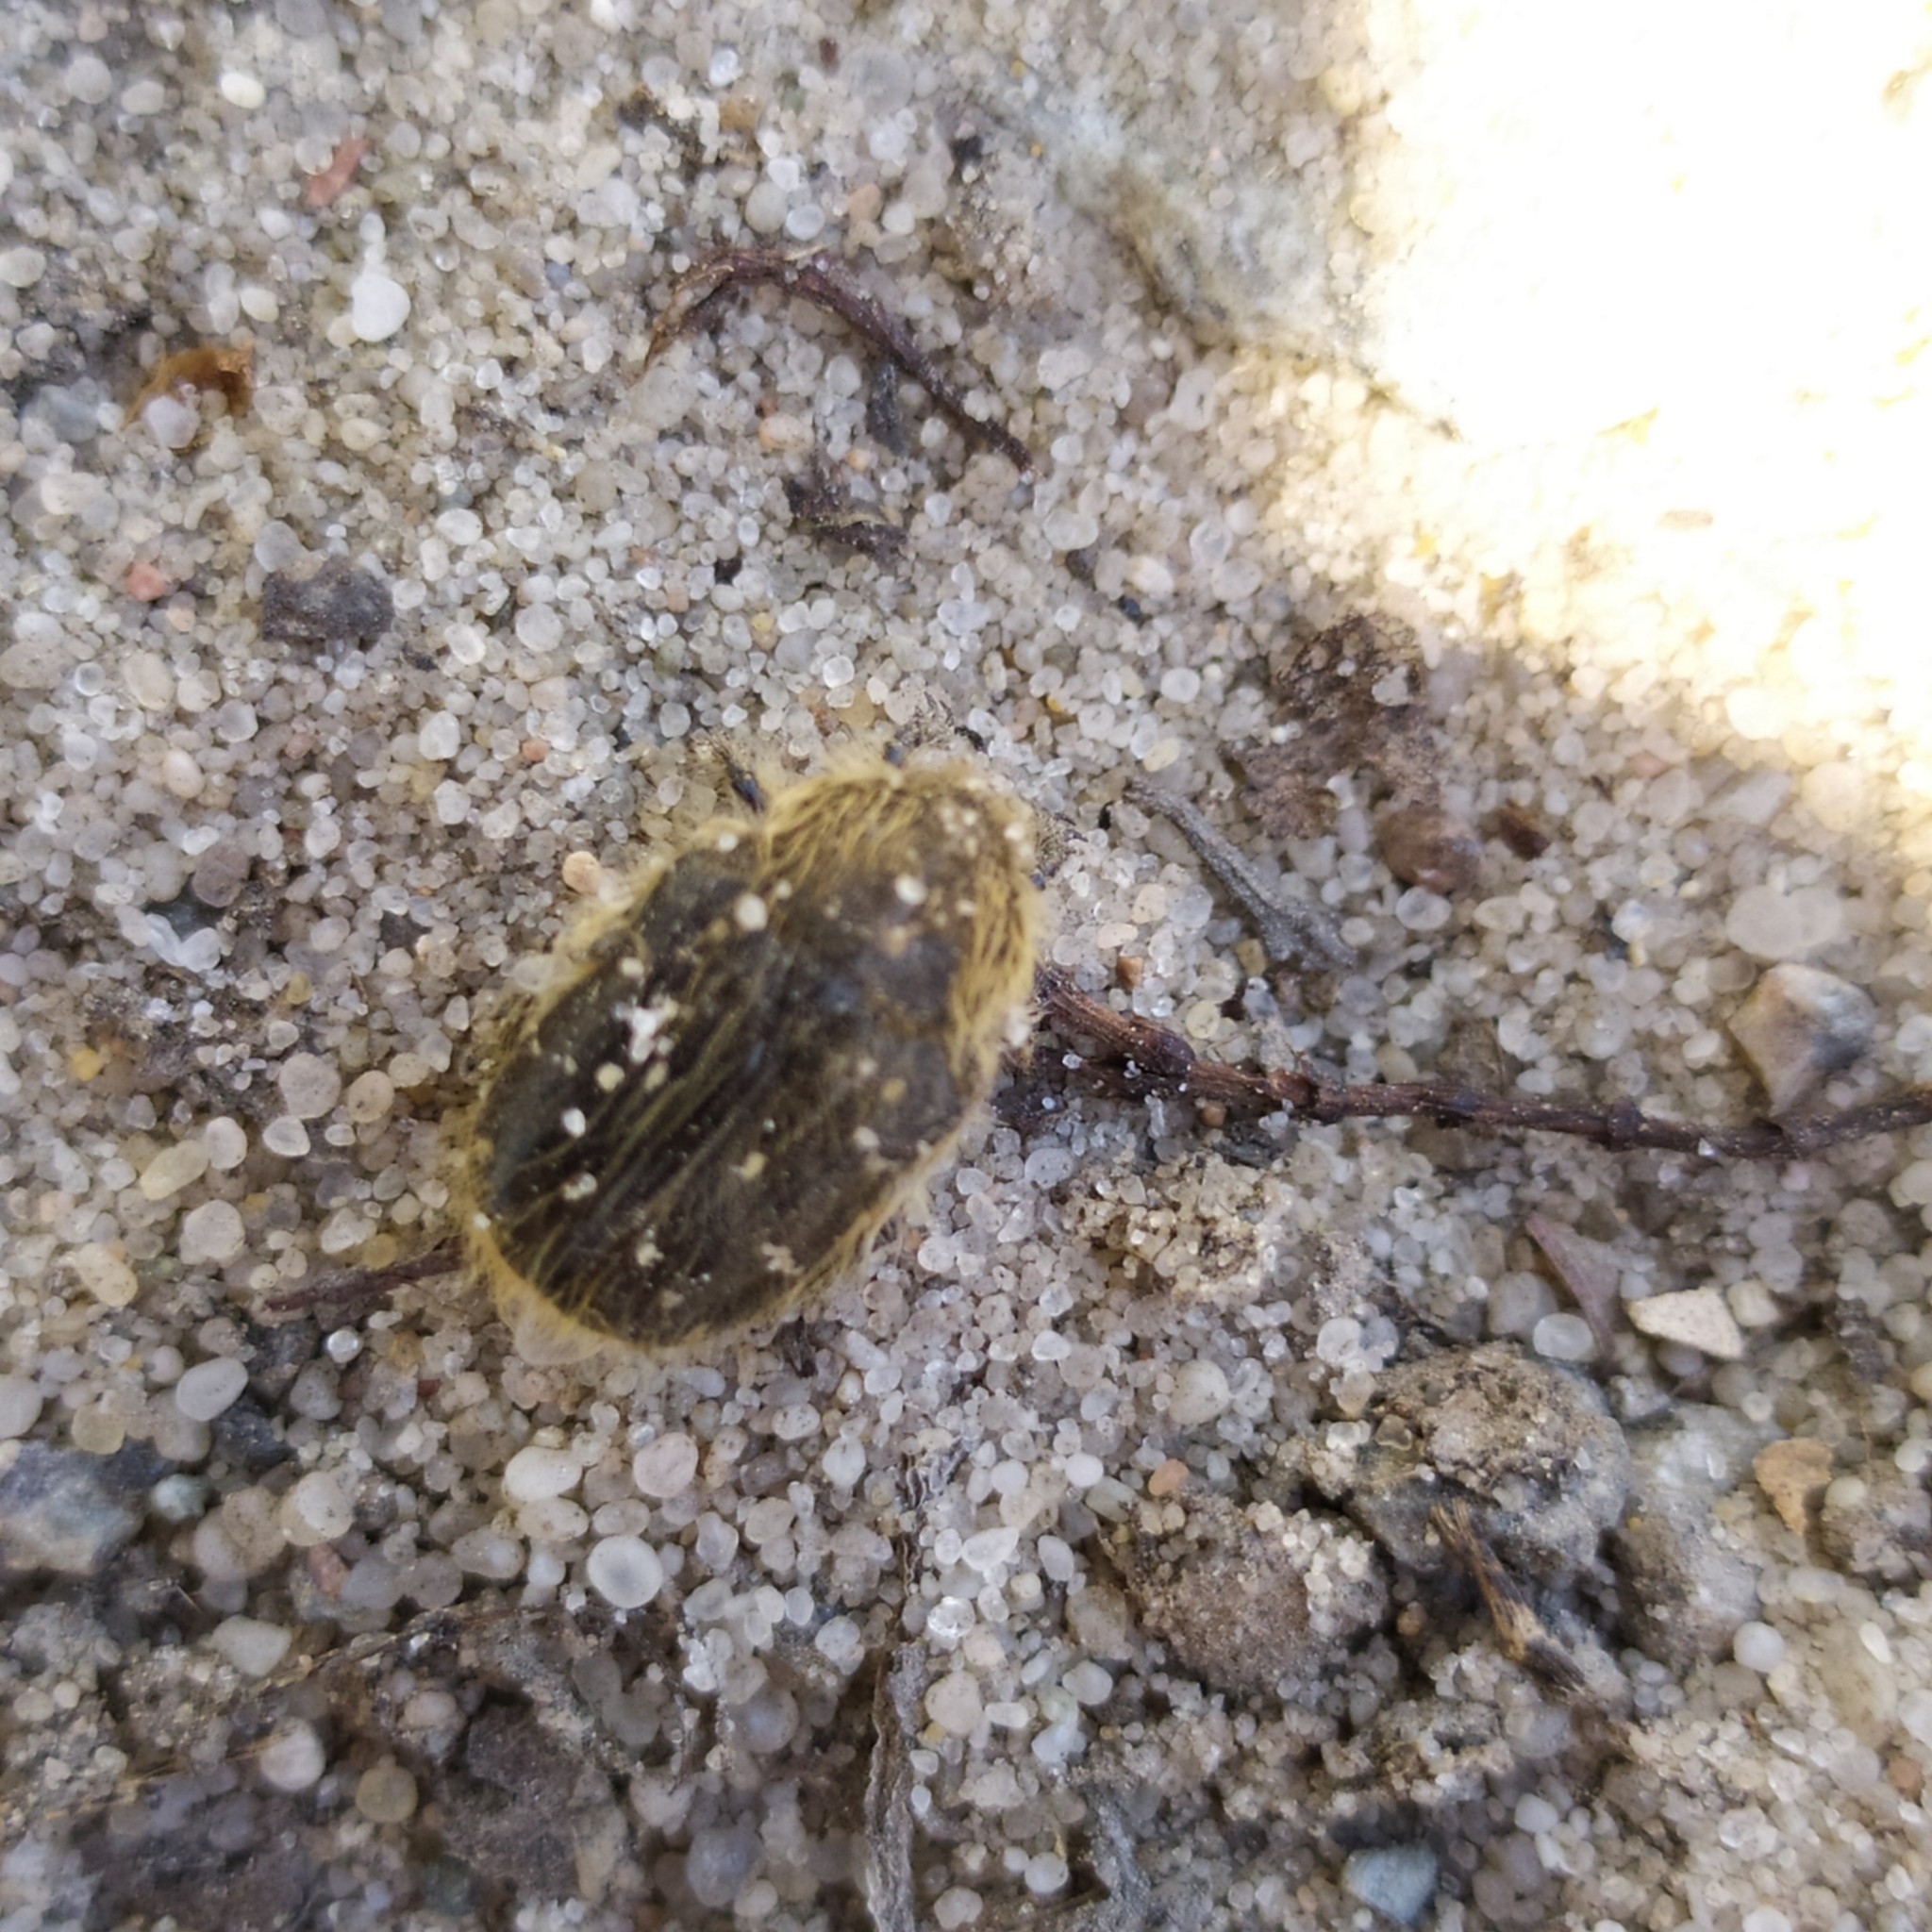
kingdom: Animalia
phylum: Arthropoda
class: Insecta
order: Coleoptera
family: Scarabaeidae
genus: Tropinota
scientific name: Tropinota hirta
